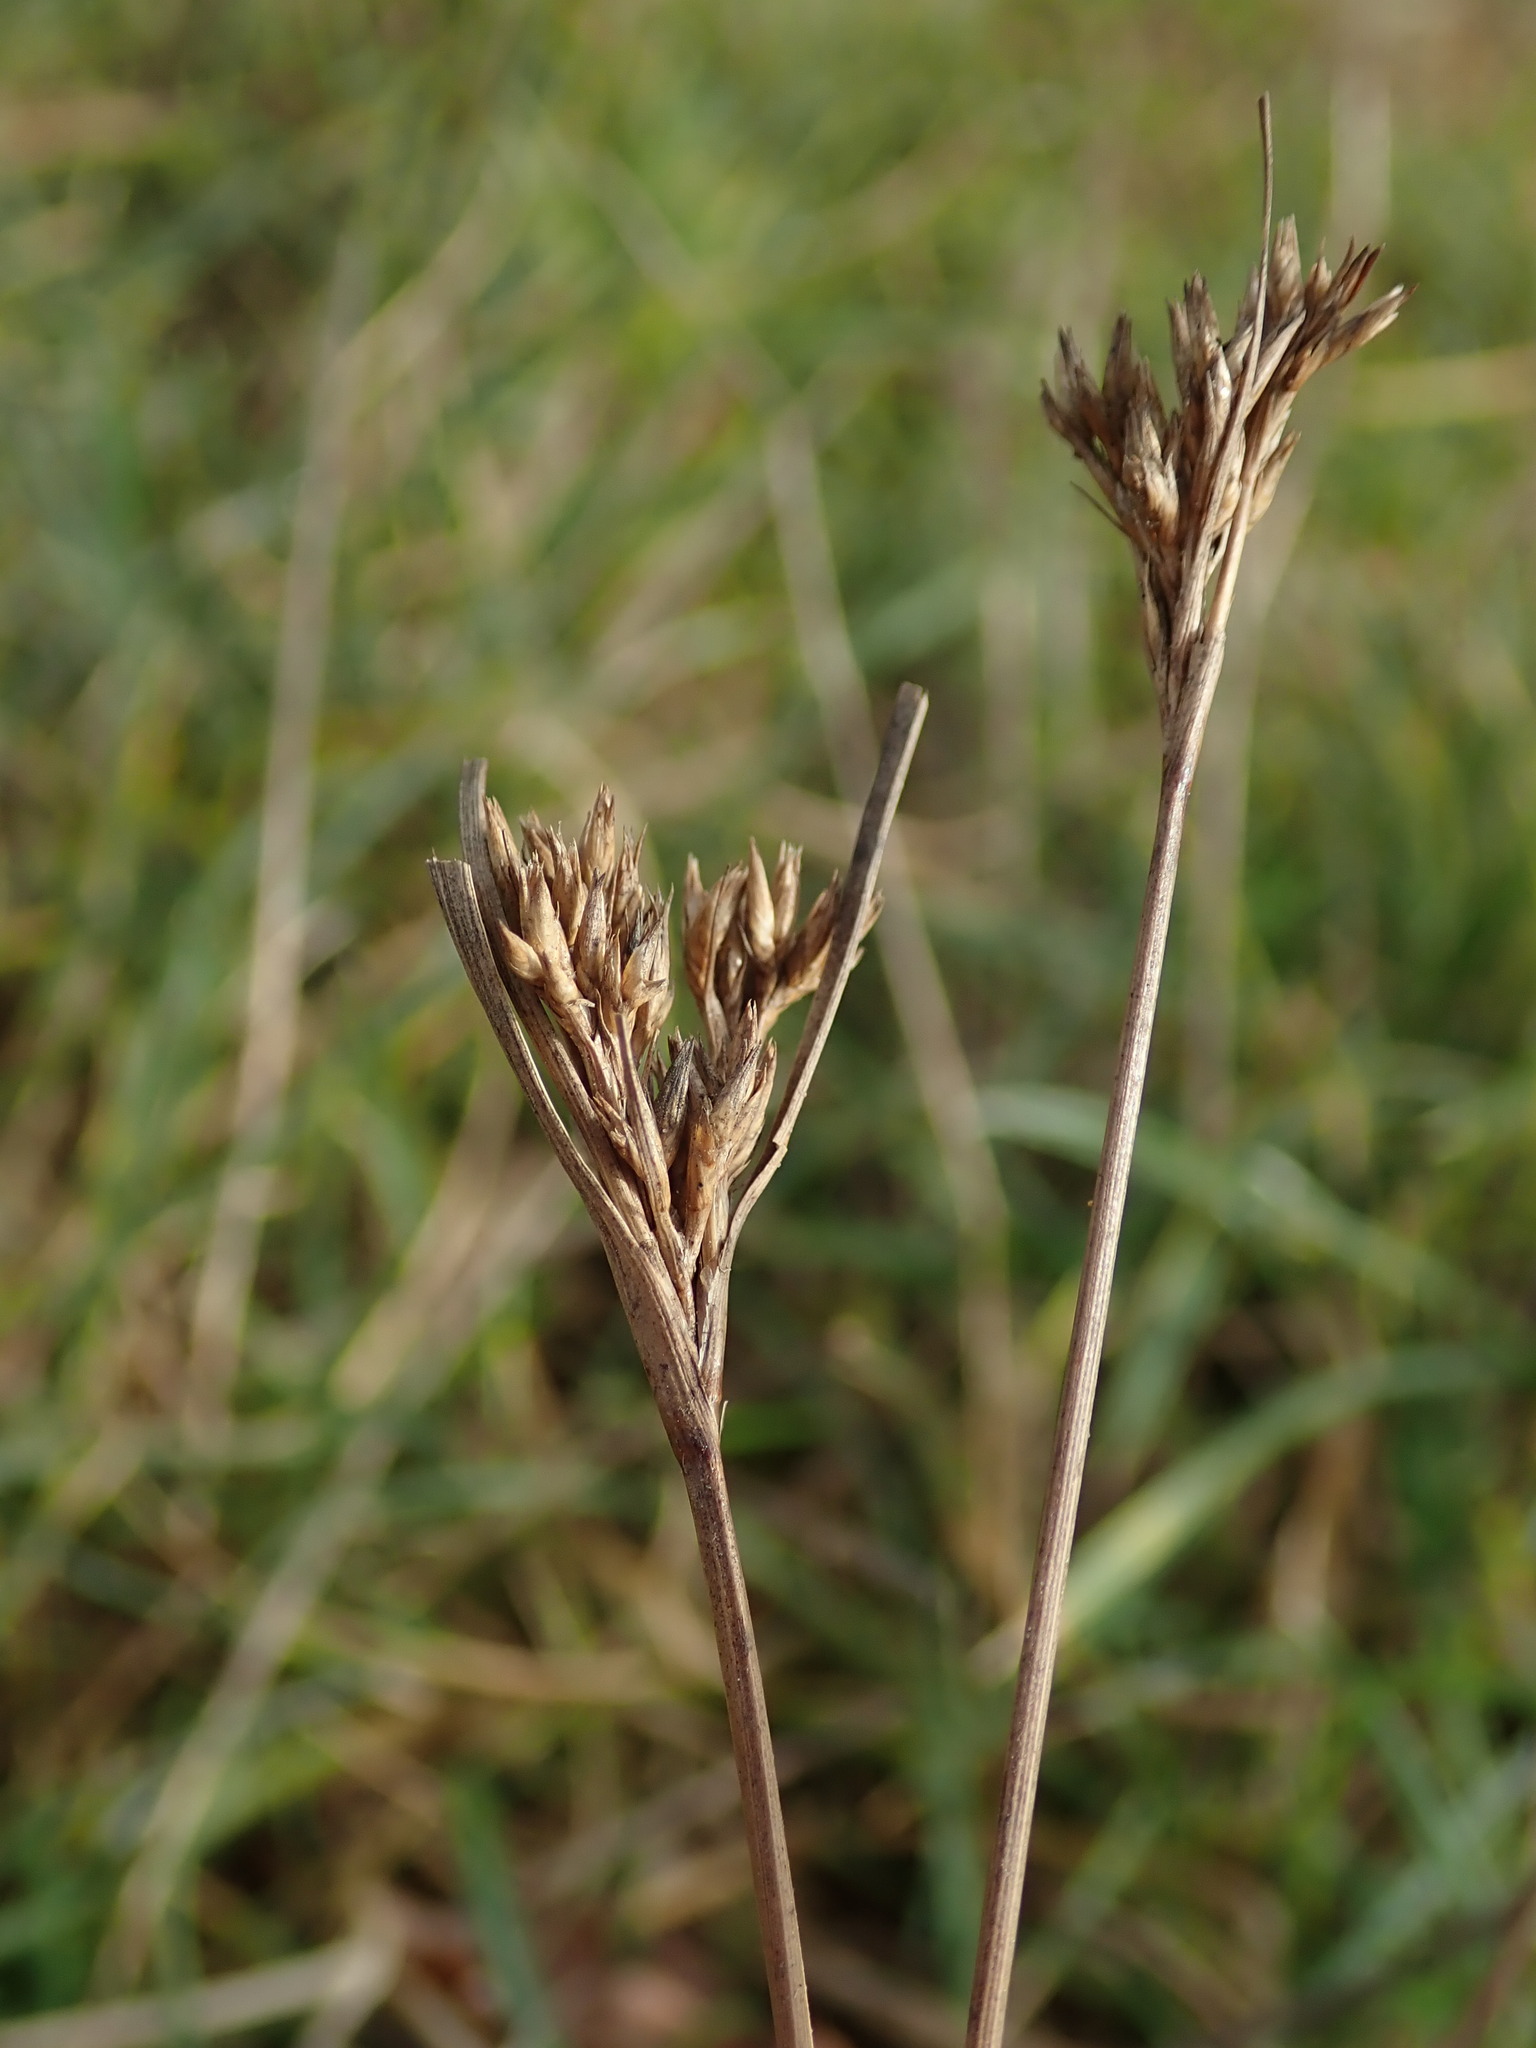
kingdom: Plantae
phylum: Tracheophyta
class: Liliopsida
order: Poales
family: Juncaceae
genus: Juncus
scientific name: Juncus tenuis
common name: Slender rush
